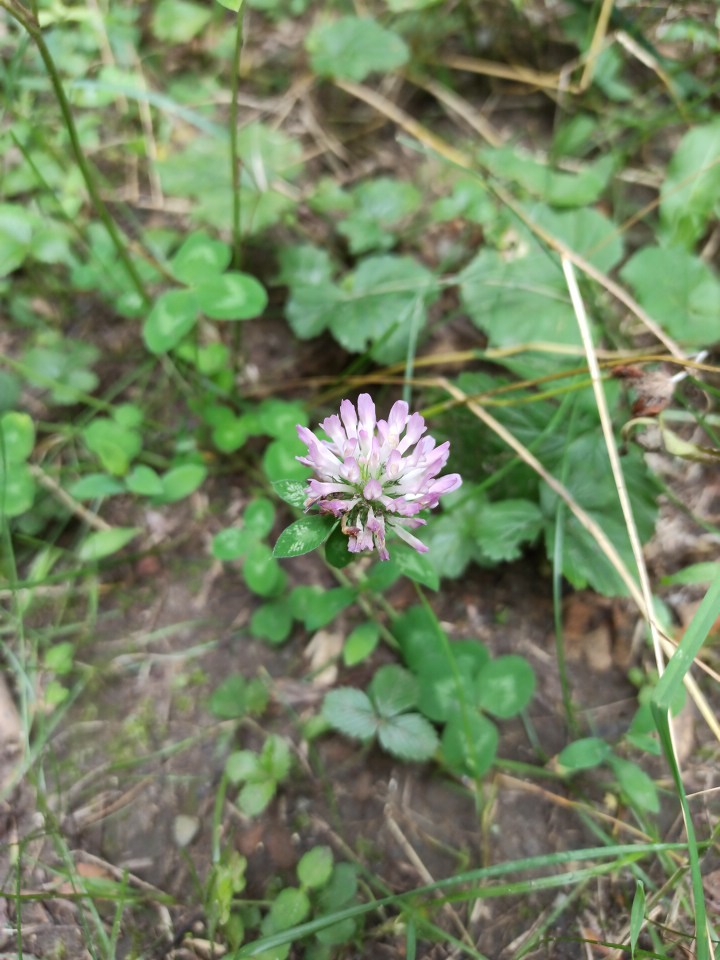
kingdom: Plantae
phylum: Tracheophyta
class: Magnoliopsida
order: Fabales
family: Fabaceae
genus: Trifolium
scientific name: Trifolium pratense
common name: Red clover
